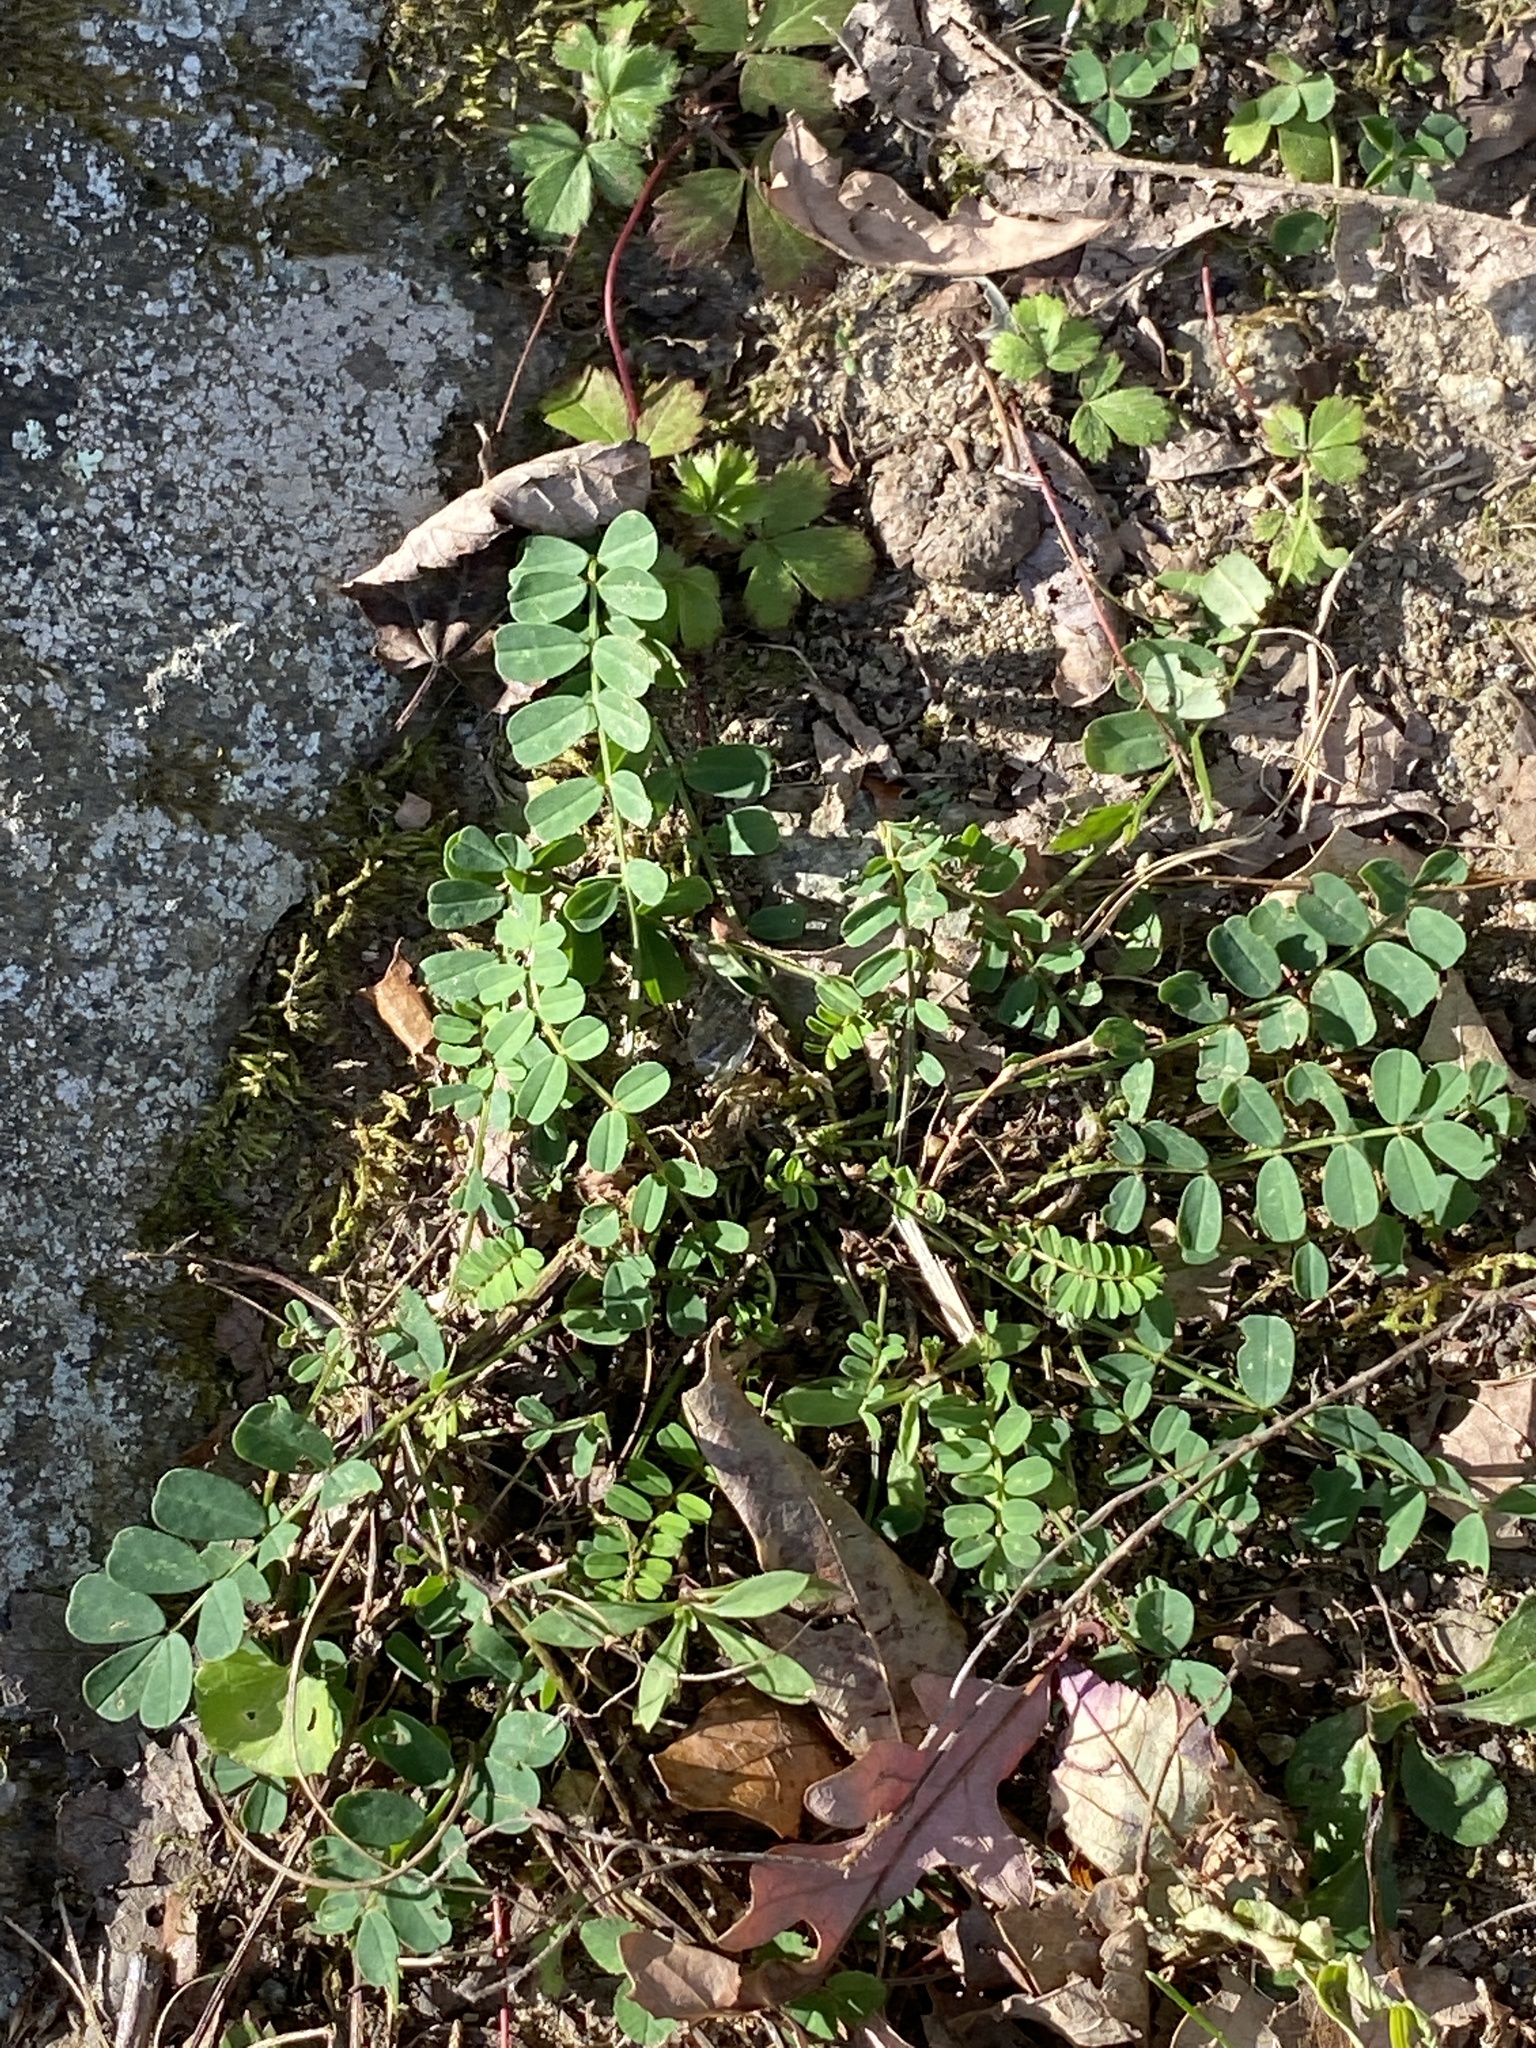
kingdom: Plantae
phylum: Tracheophyta
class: Magnoliopsida
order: Fabales
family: Fabaceae
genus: Coronilla
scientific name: Coronilla varia
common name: Crownvetch
